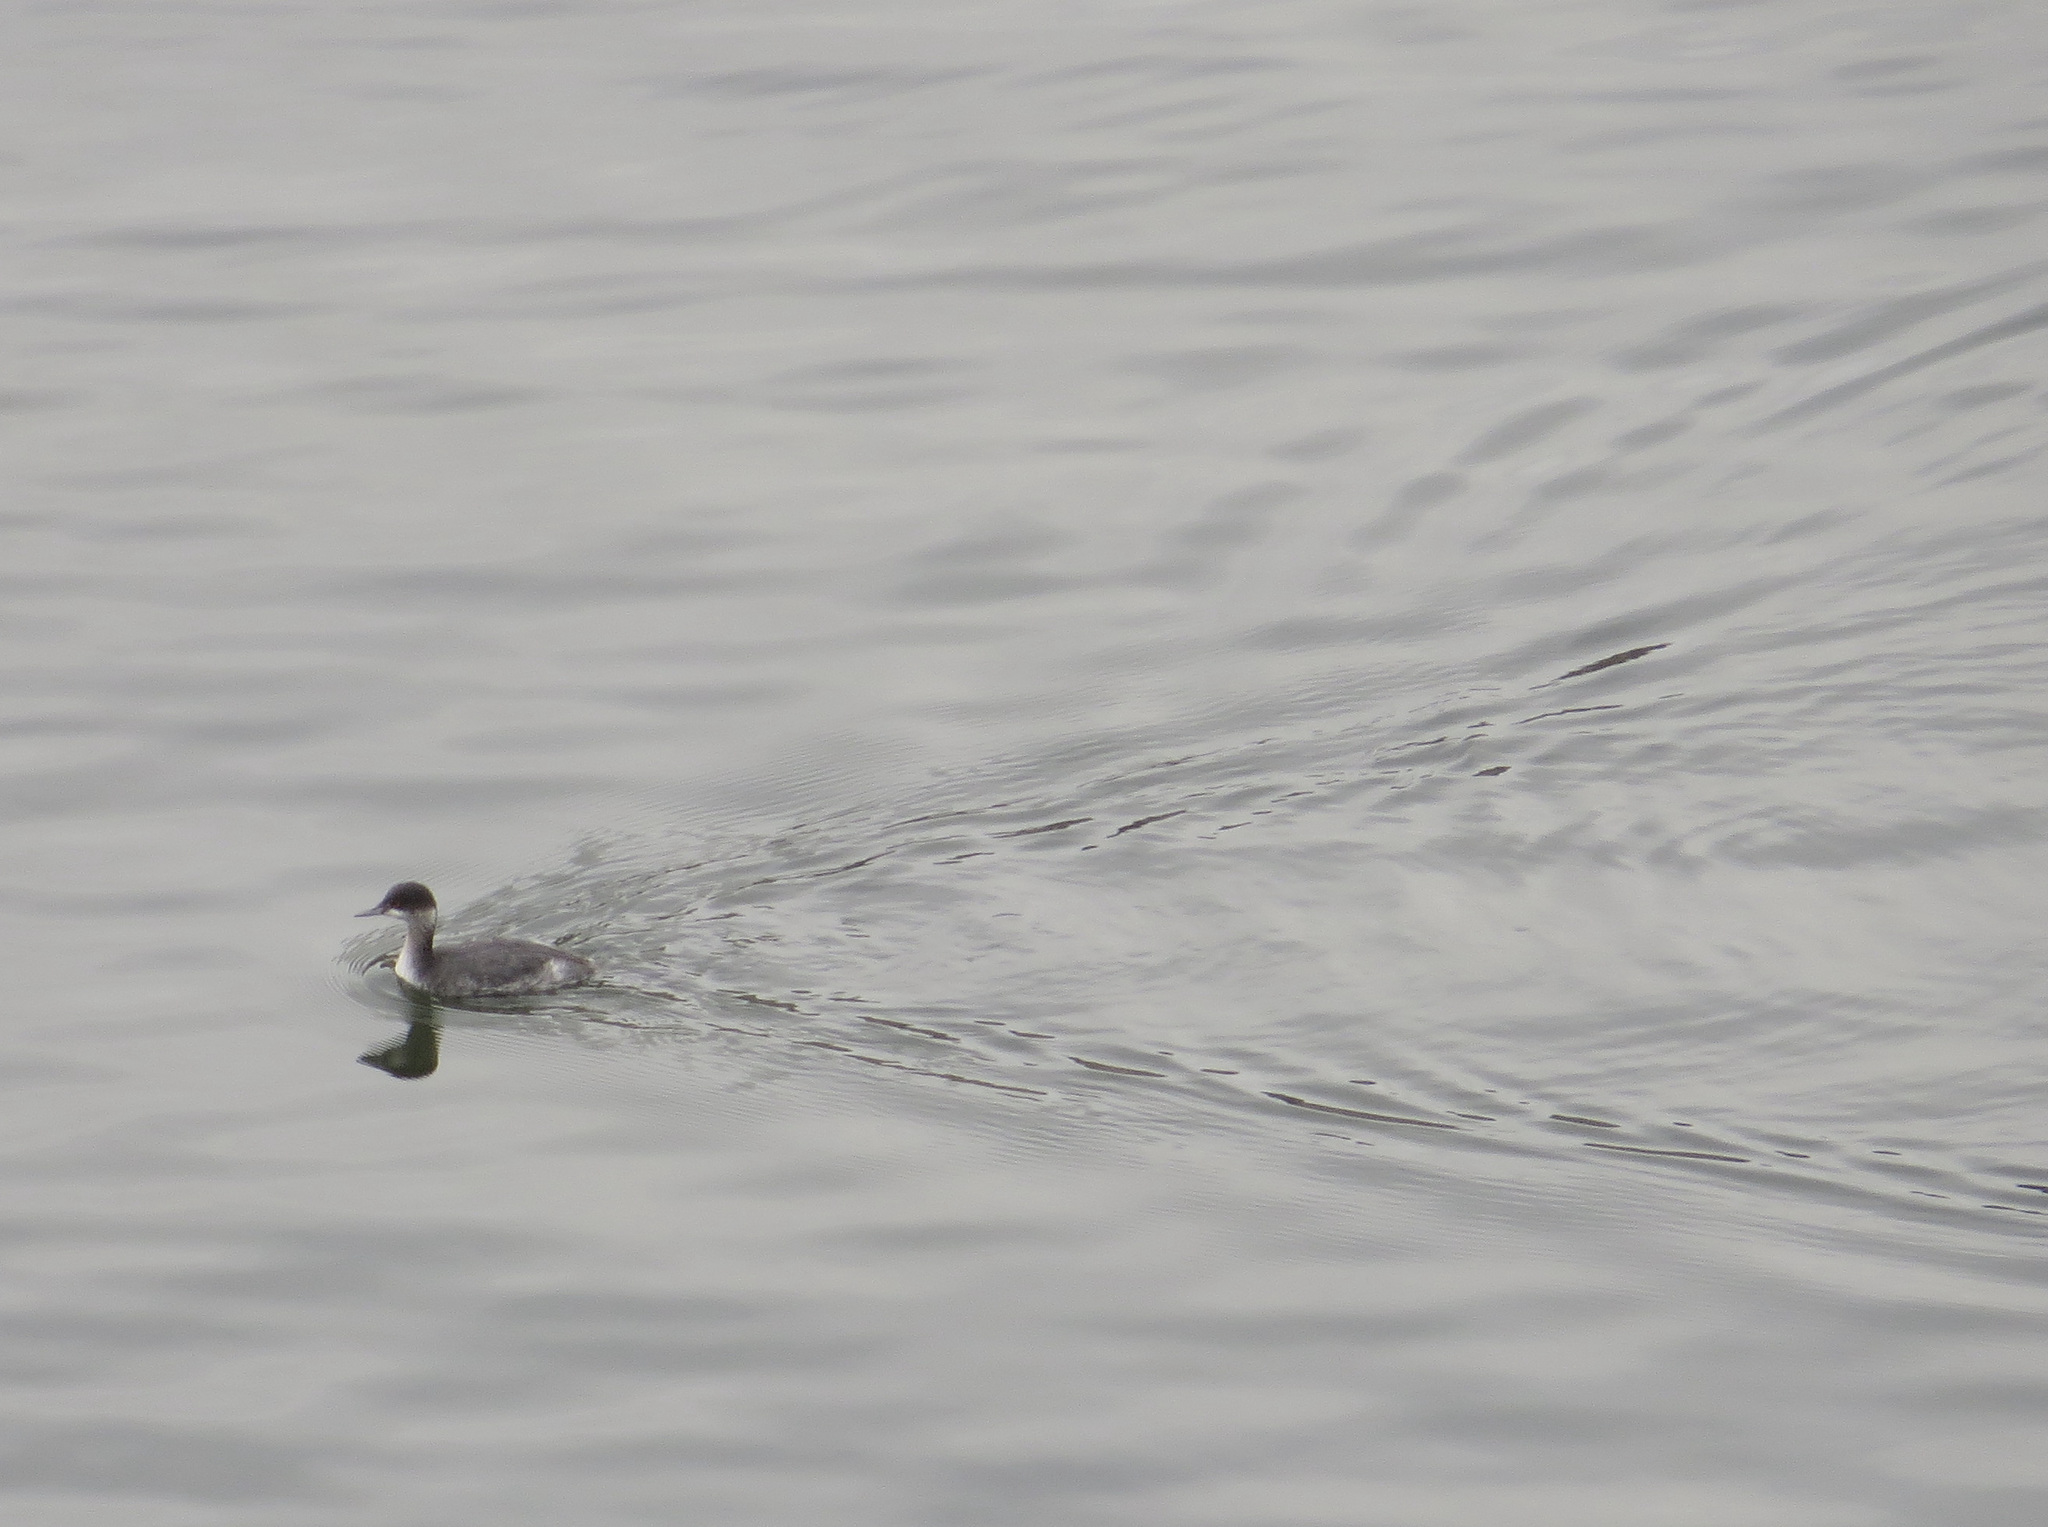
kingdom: Animalia
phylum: Chordata
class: Aves
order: Podicipediformes
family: Podicipedidae
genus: Podiceps
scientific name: Podiceps nigricollis
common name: Black-necked grebe
